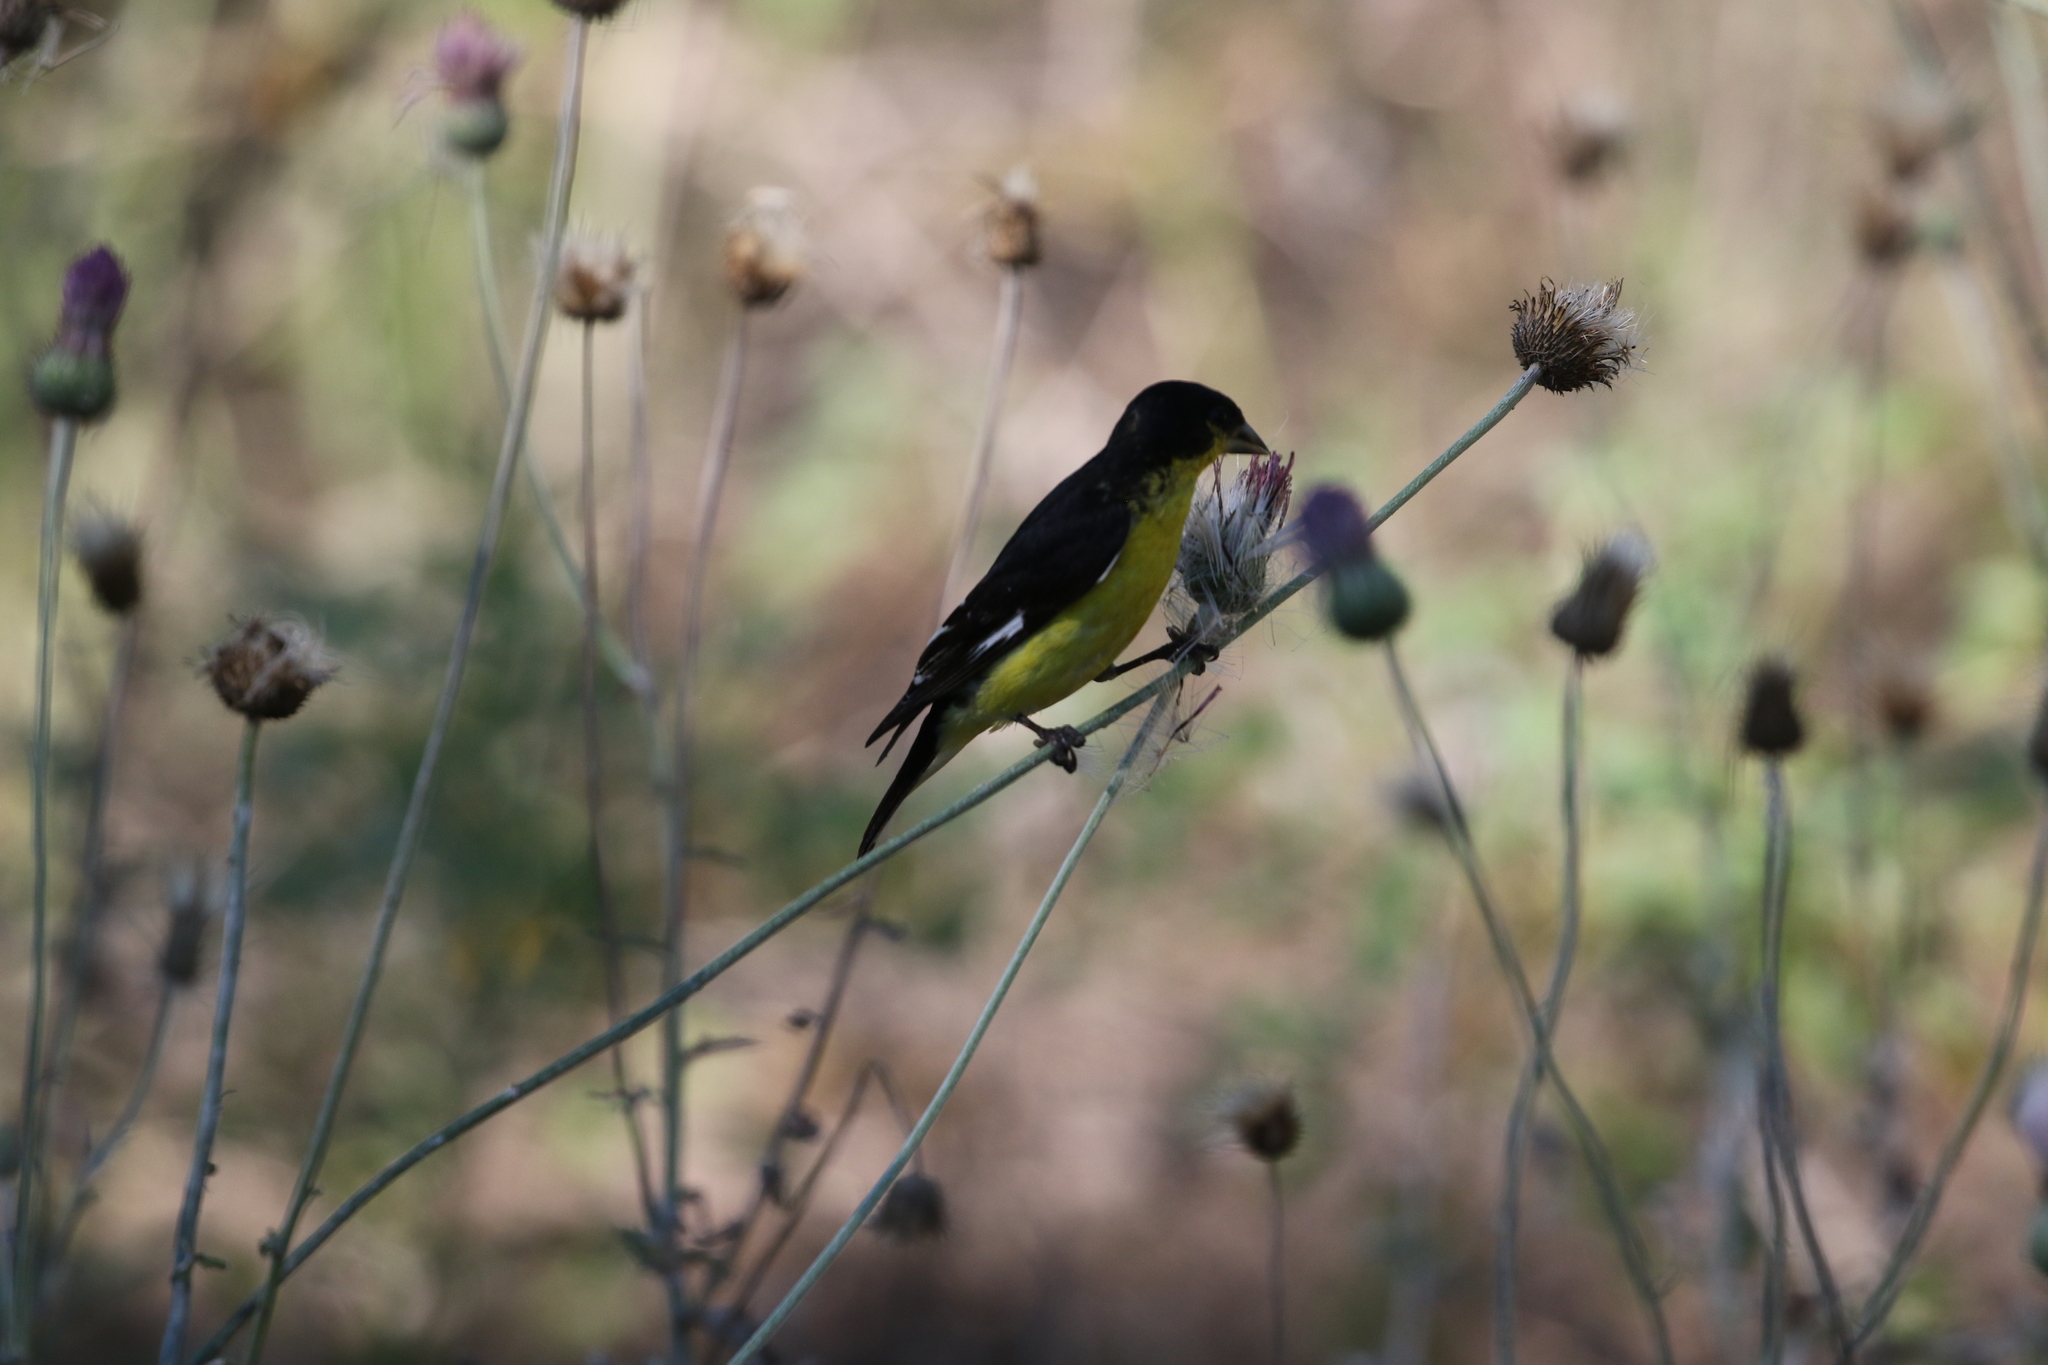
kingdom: Animalia
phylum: Chordata
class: Aves
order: Passeriformes
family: Fringillidae
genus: Spinus
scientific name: Spinus psaltria
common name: Lesser goldfinch
